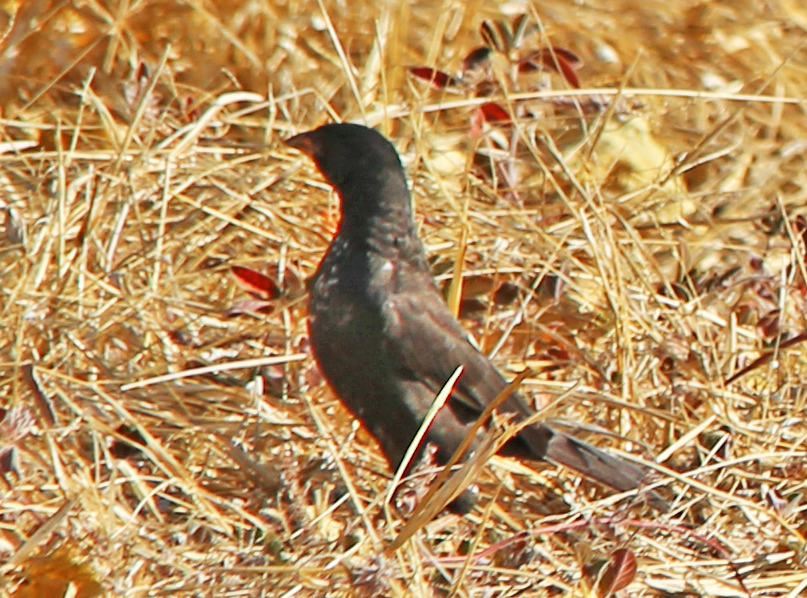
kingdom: Animalia
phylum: Chordata
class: Aves
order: Passeriformes
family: Ploceidae
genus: Bubalornis
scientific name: Bubalornis niger
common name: Red-billed buffalo weaver
